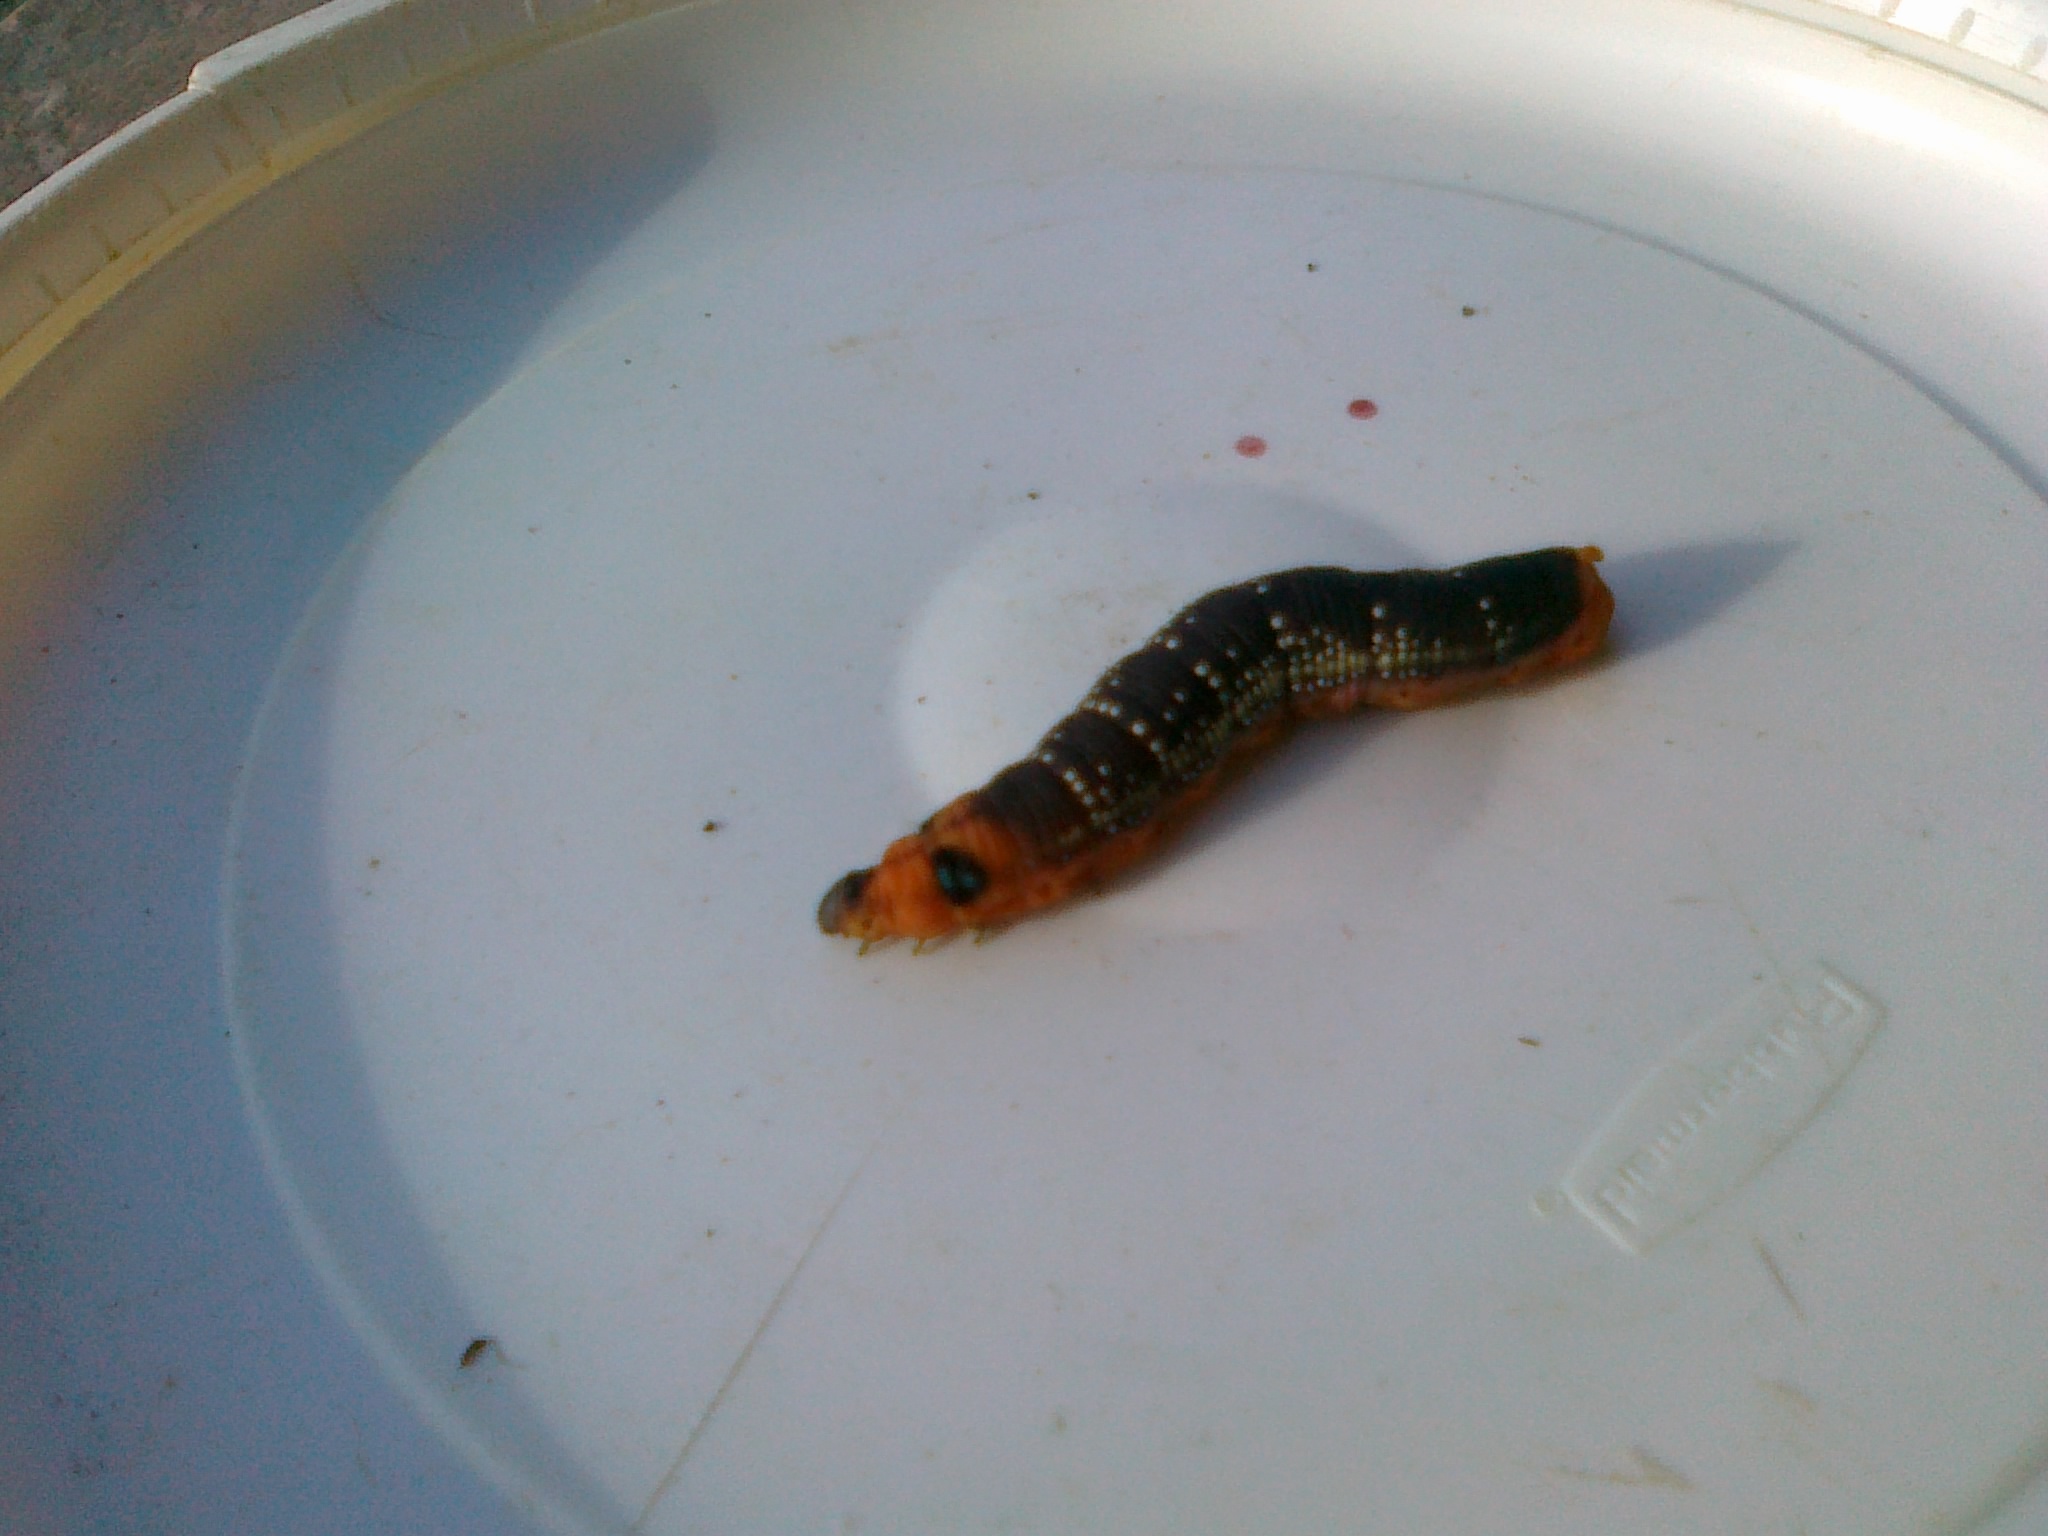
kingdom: Animalia
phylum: Arthropoda
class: Insecta
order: Lepidoptera
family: Sphingidae
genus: Daphnis
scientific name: Daphnis nerii
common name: Oleander hawk-moth
